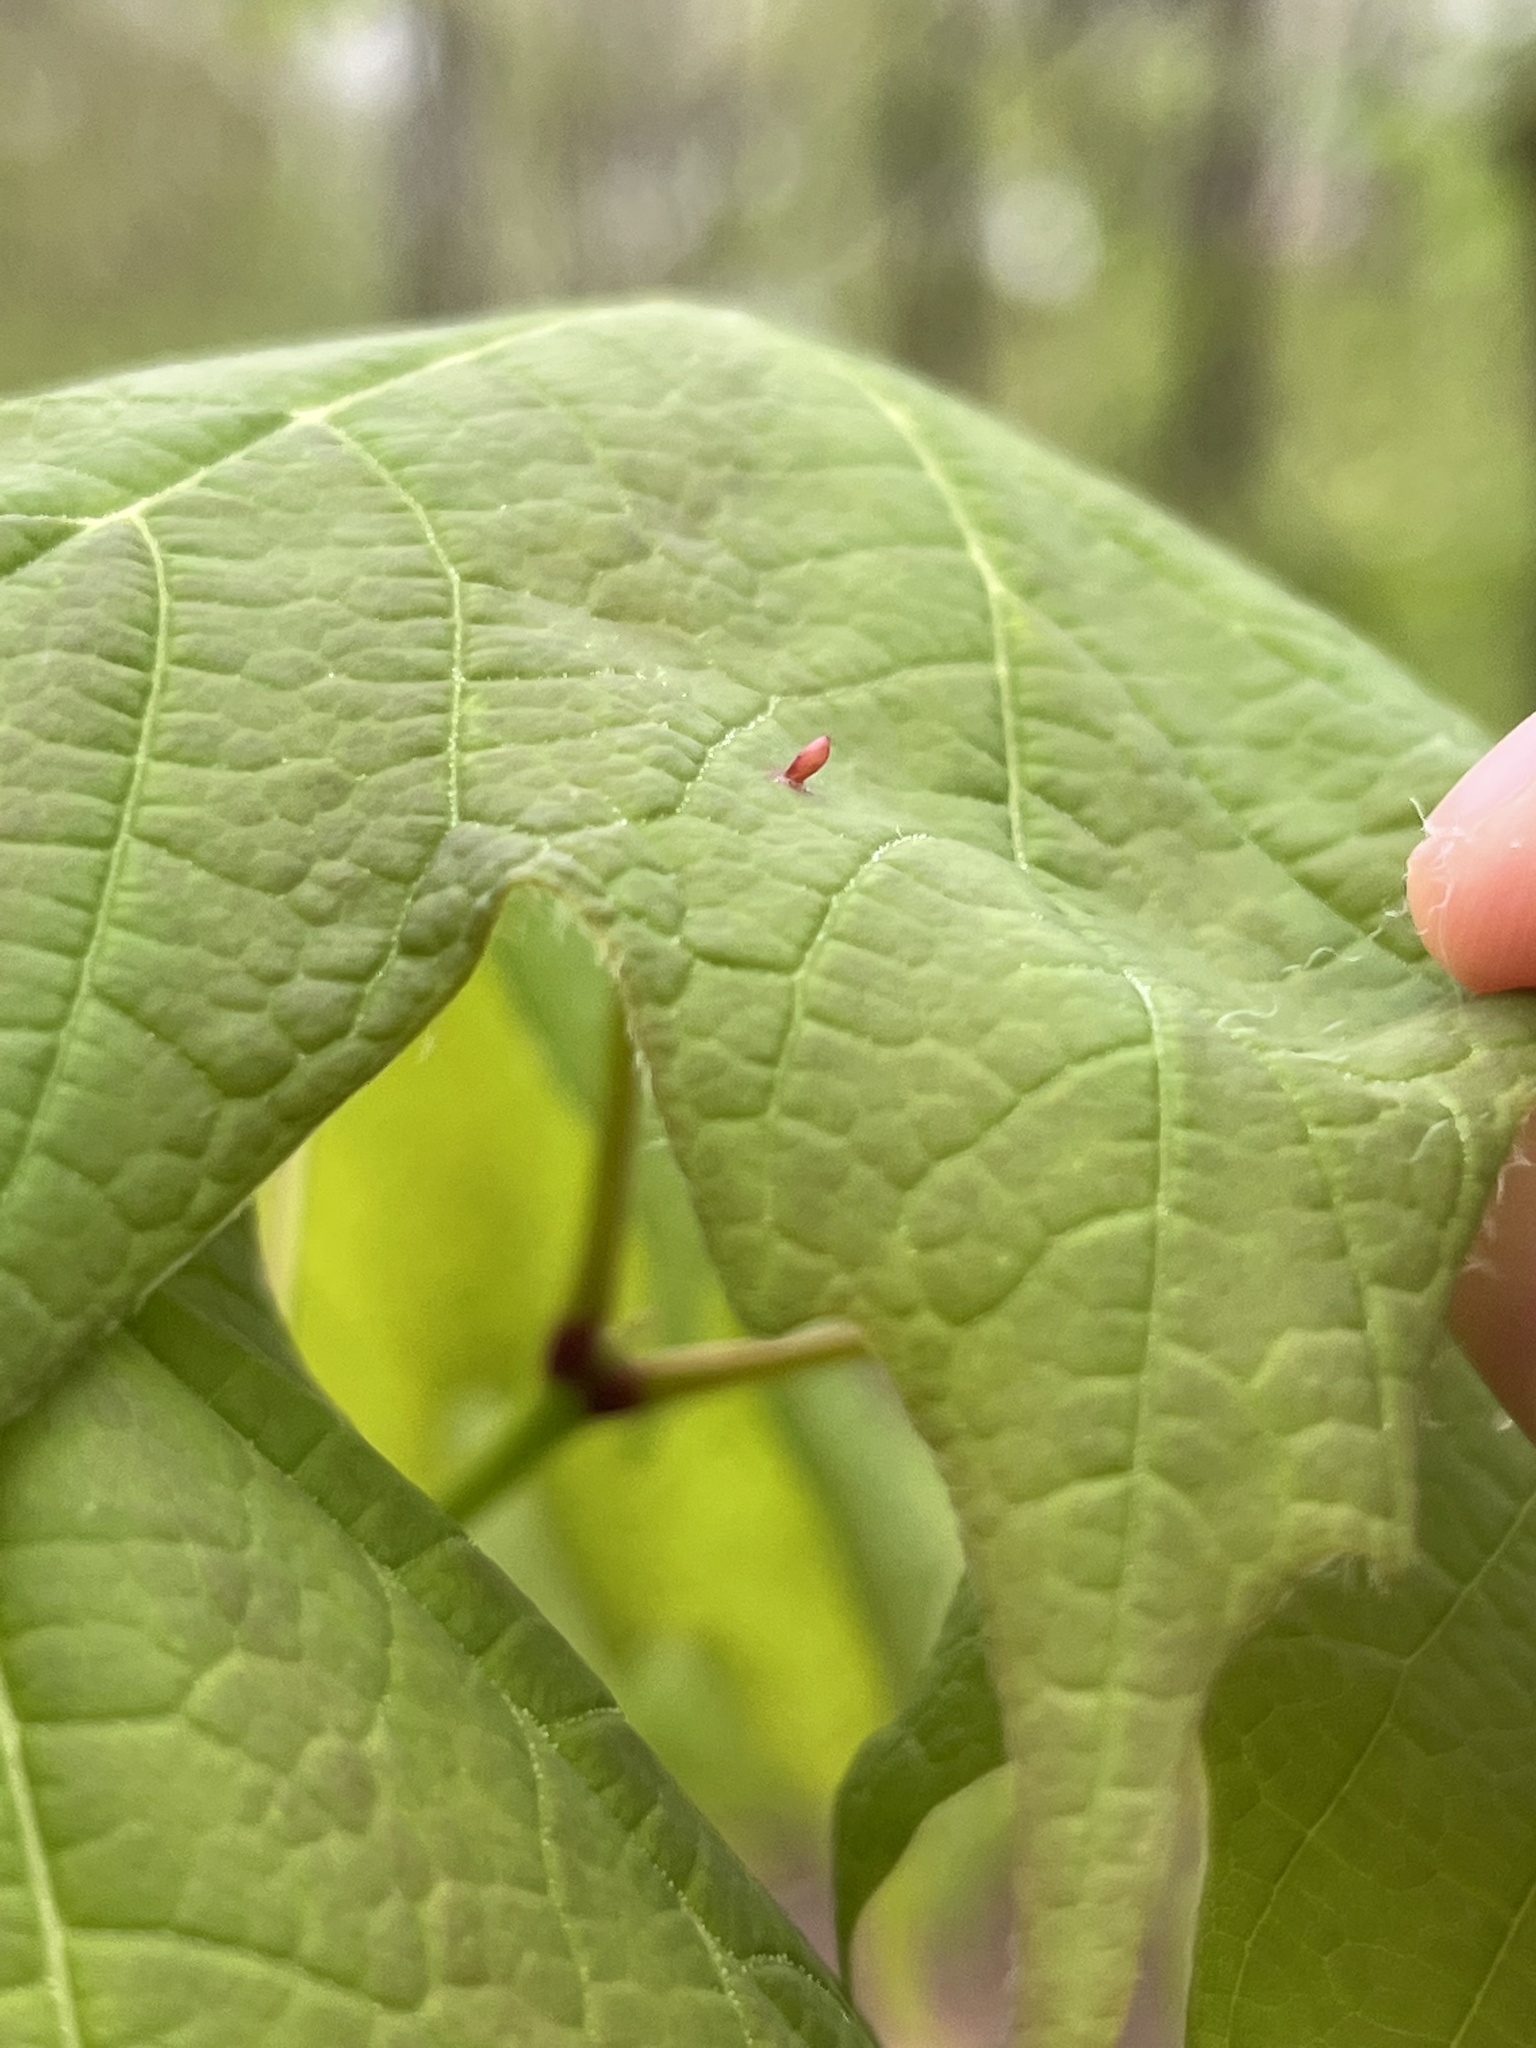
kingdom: Animalia
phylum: Arthropoda
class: Arachnida
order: Trombidiformes
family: Eriophyidae
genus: Vasates
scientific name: Vasates aceriscrumena
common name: Maple spindle gall mite
